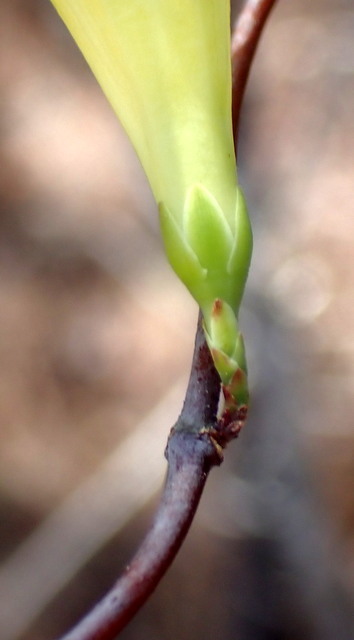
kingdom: Plantae
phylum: Tracheophyta
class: Magnoliopsida
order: Gentianales
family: Gelsemiaceae
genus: Gelsemium
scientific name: Gelsemium sempervirens
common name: Carolina-jasmine
